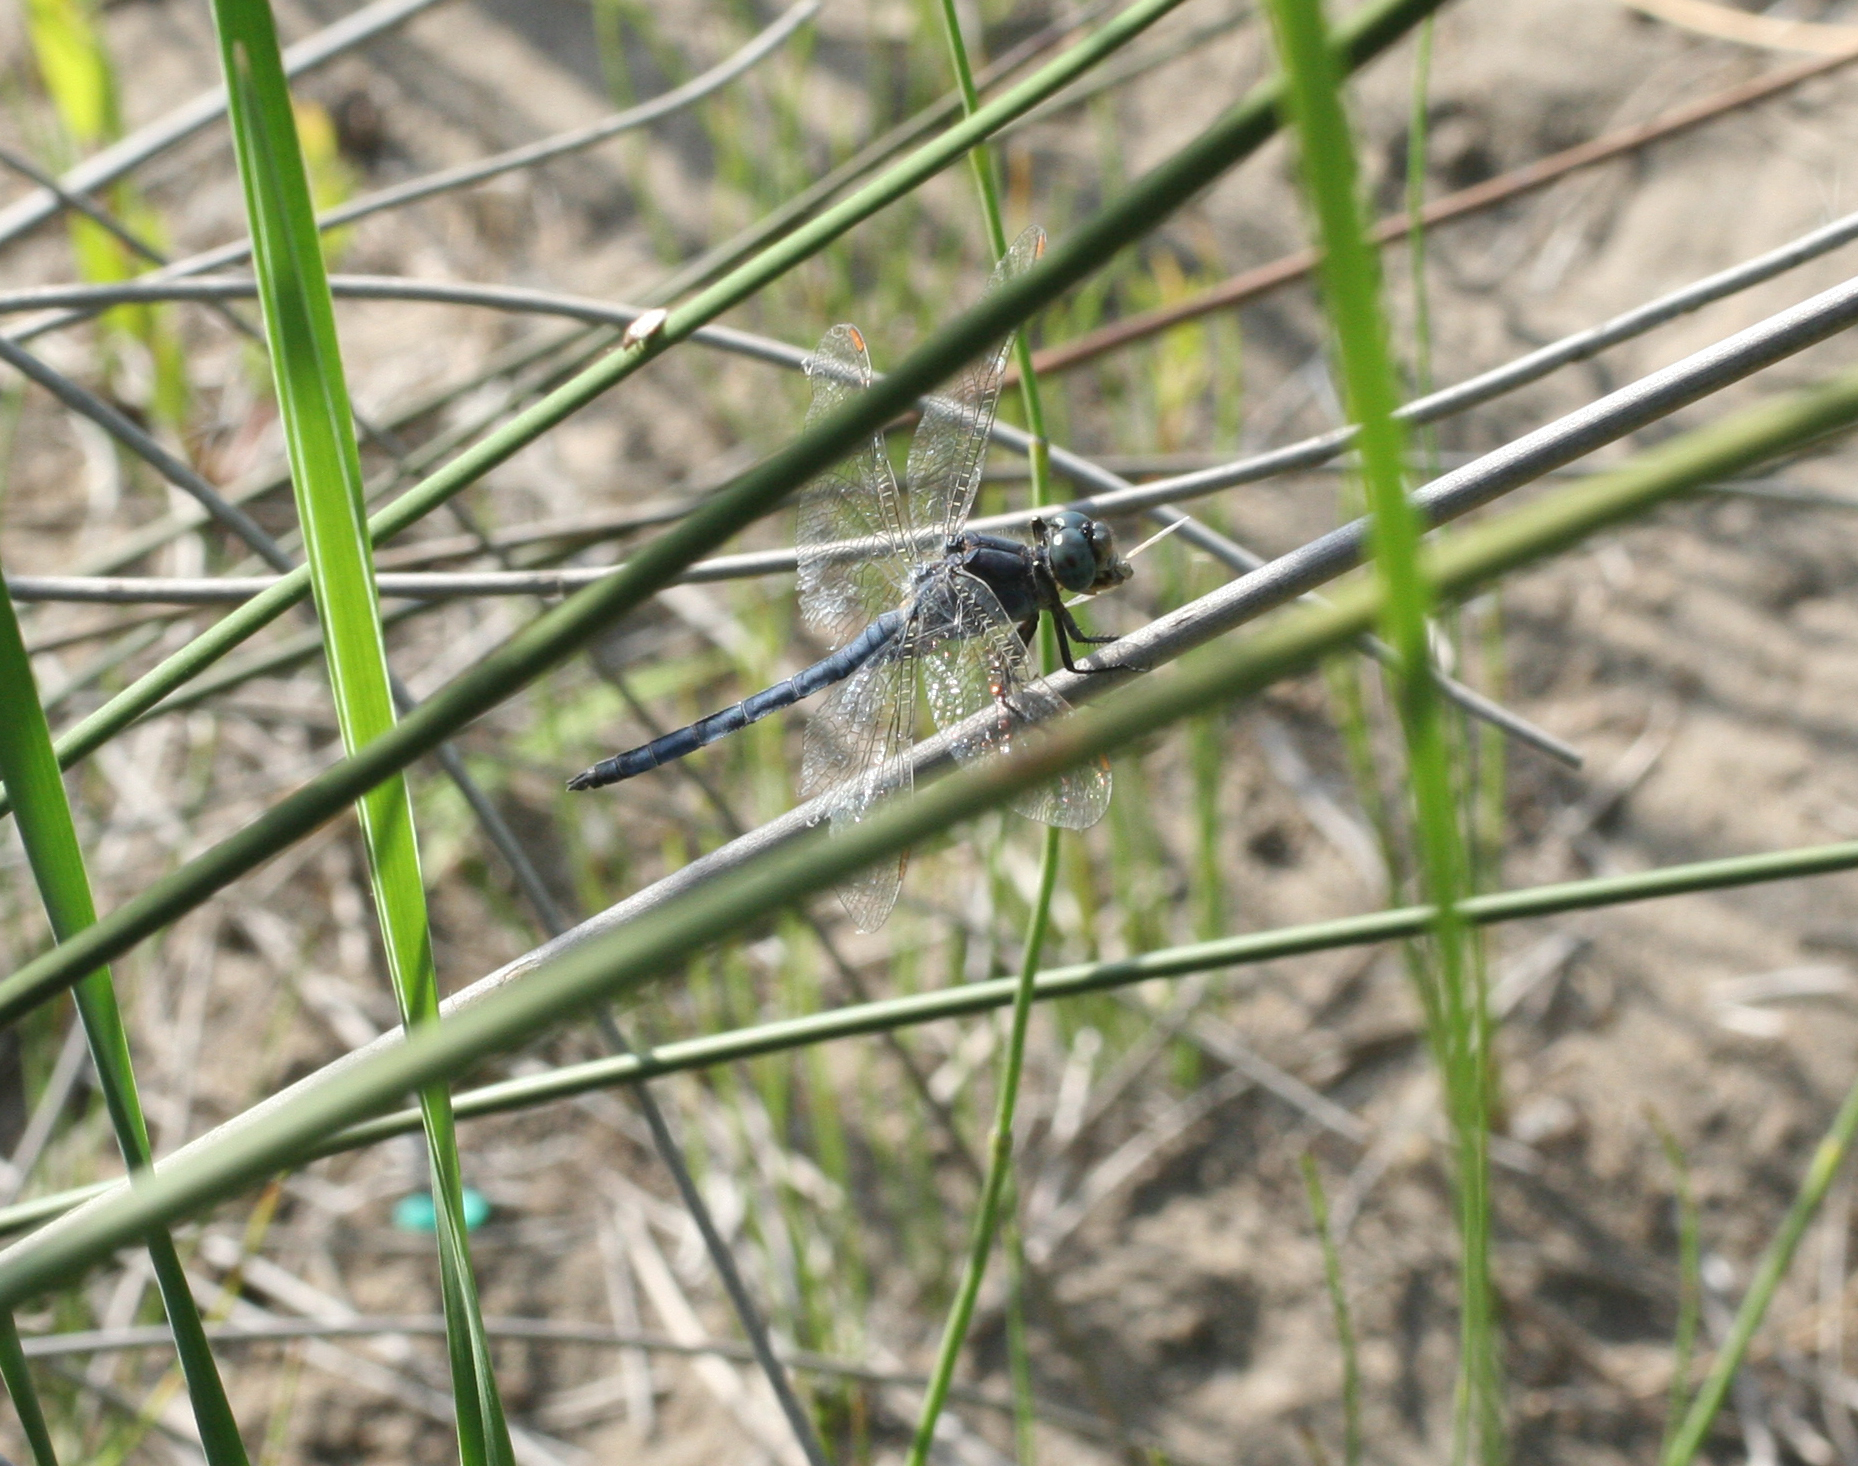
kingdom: Animalia
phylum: Arthropoda
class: Insecta
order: Odonata
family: Libellulidae
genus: Orthetrum
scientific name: Orthetrum coerulescens
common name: Keeled skimmer
